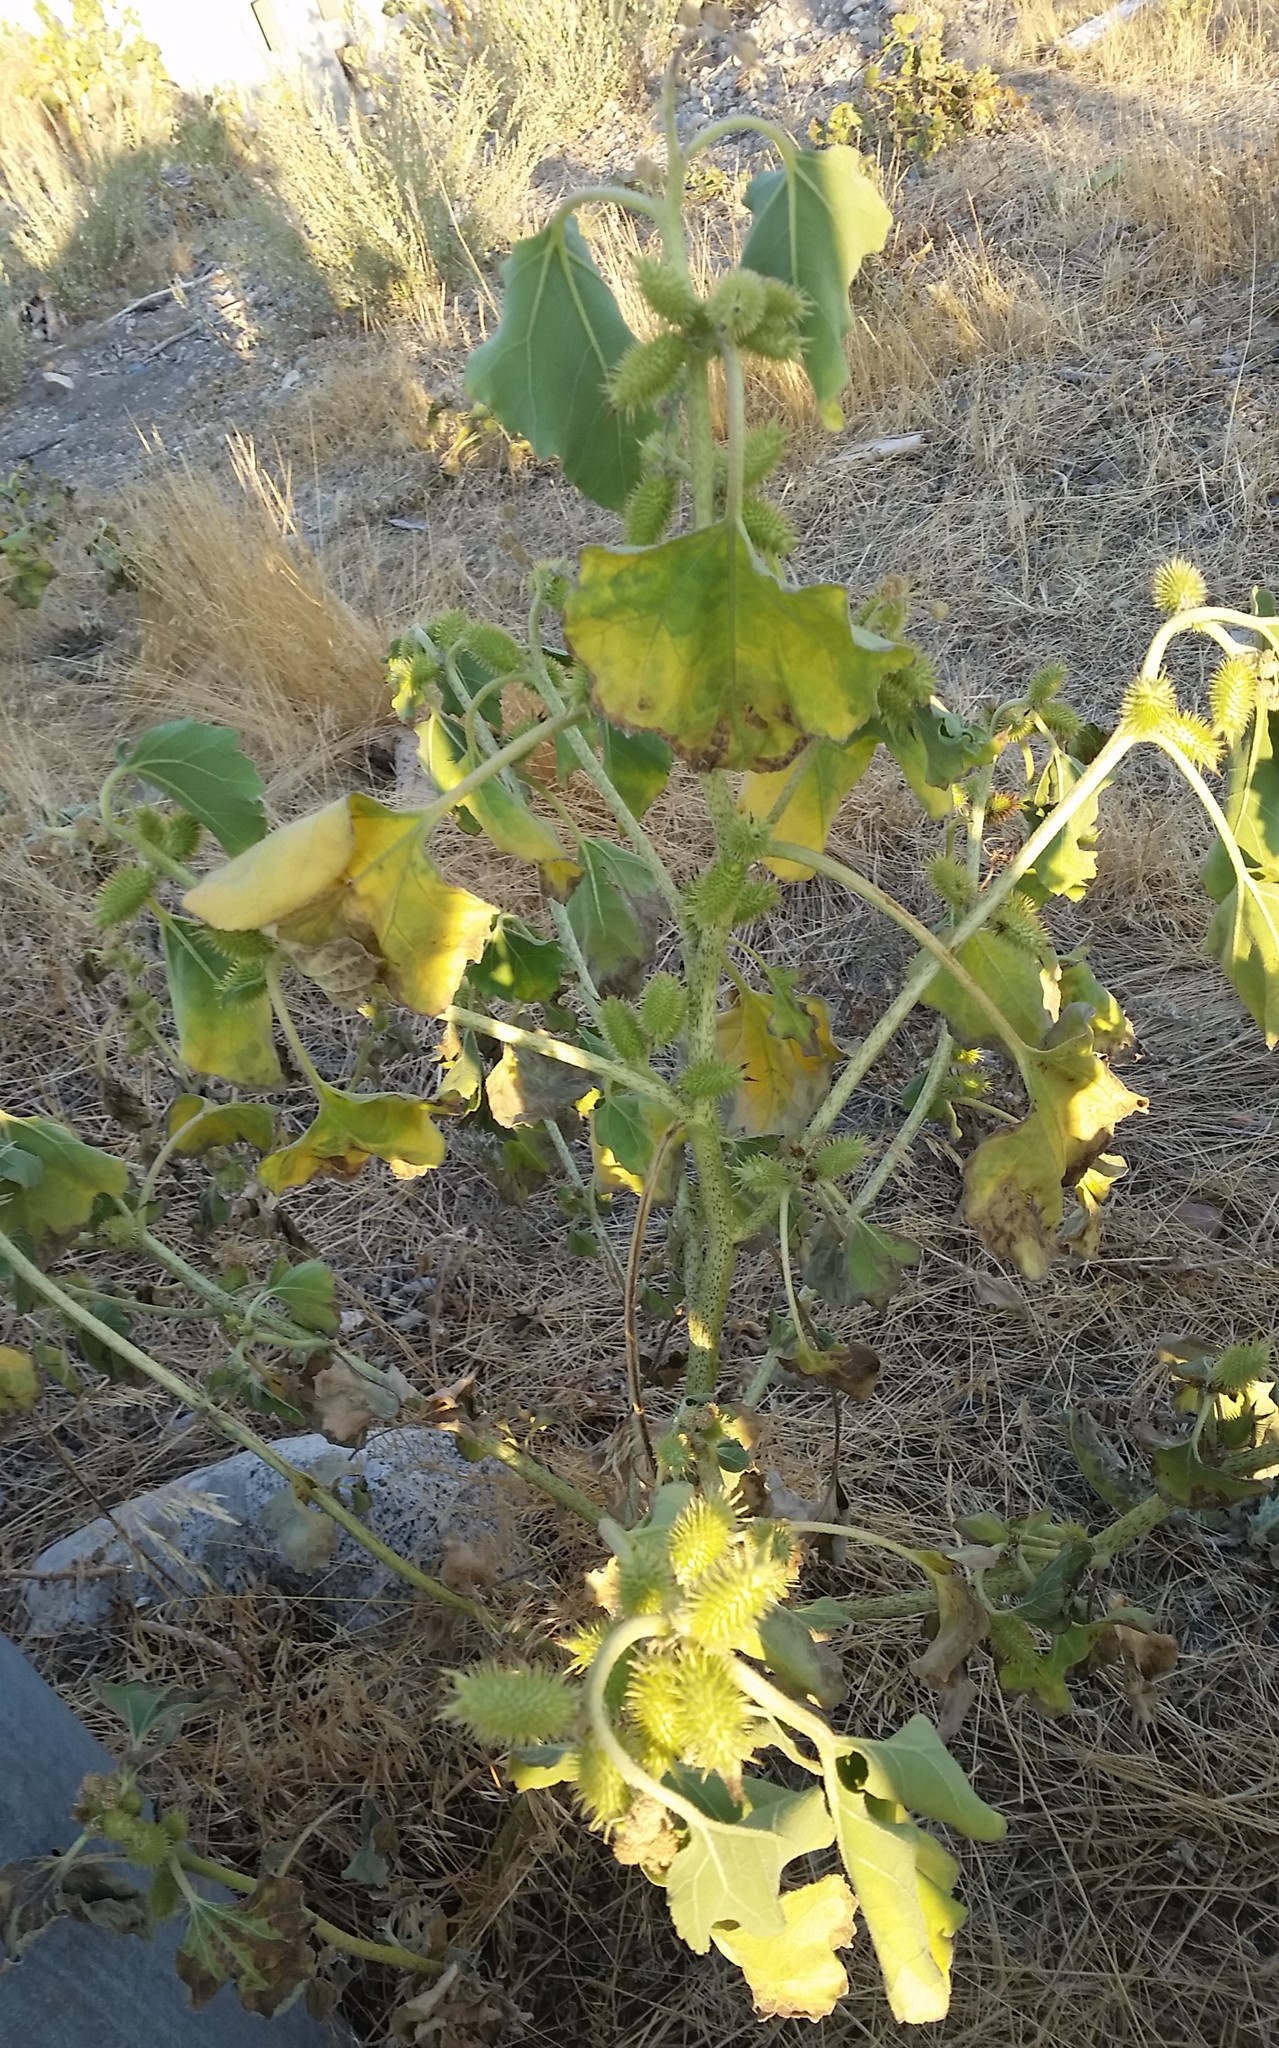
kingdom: Plantae
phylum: Tracheophyta
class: Magnoliopsida
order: Asterales
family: Asteraceae
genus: Xanthium
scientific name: Xanthium strumarium
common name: Rough cocklebur
